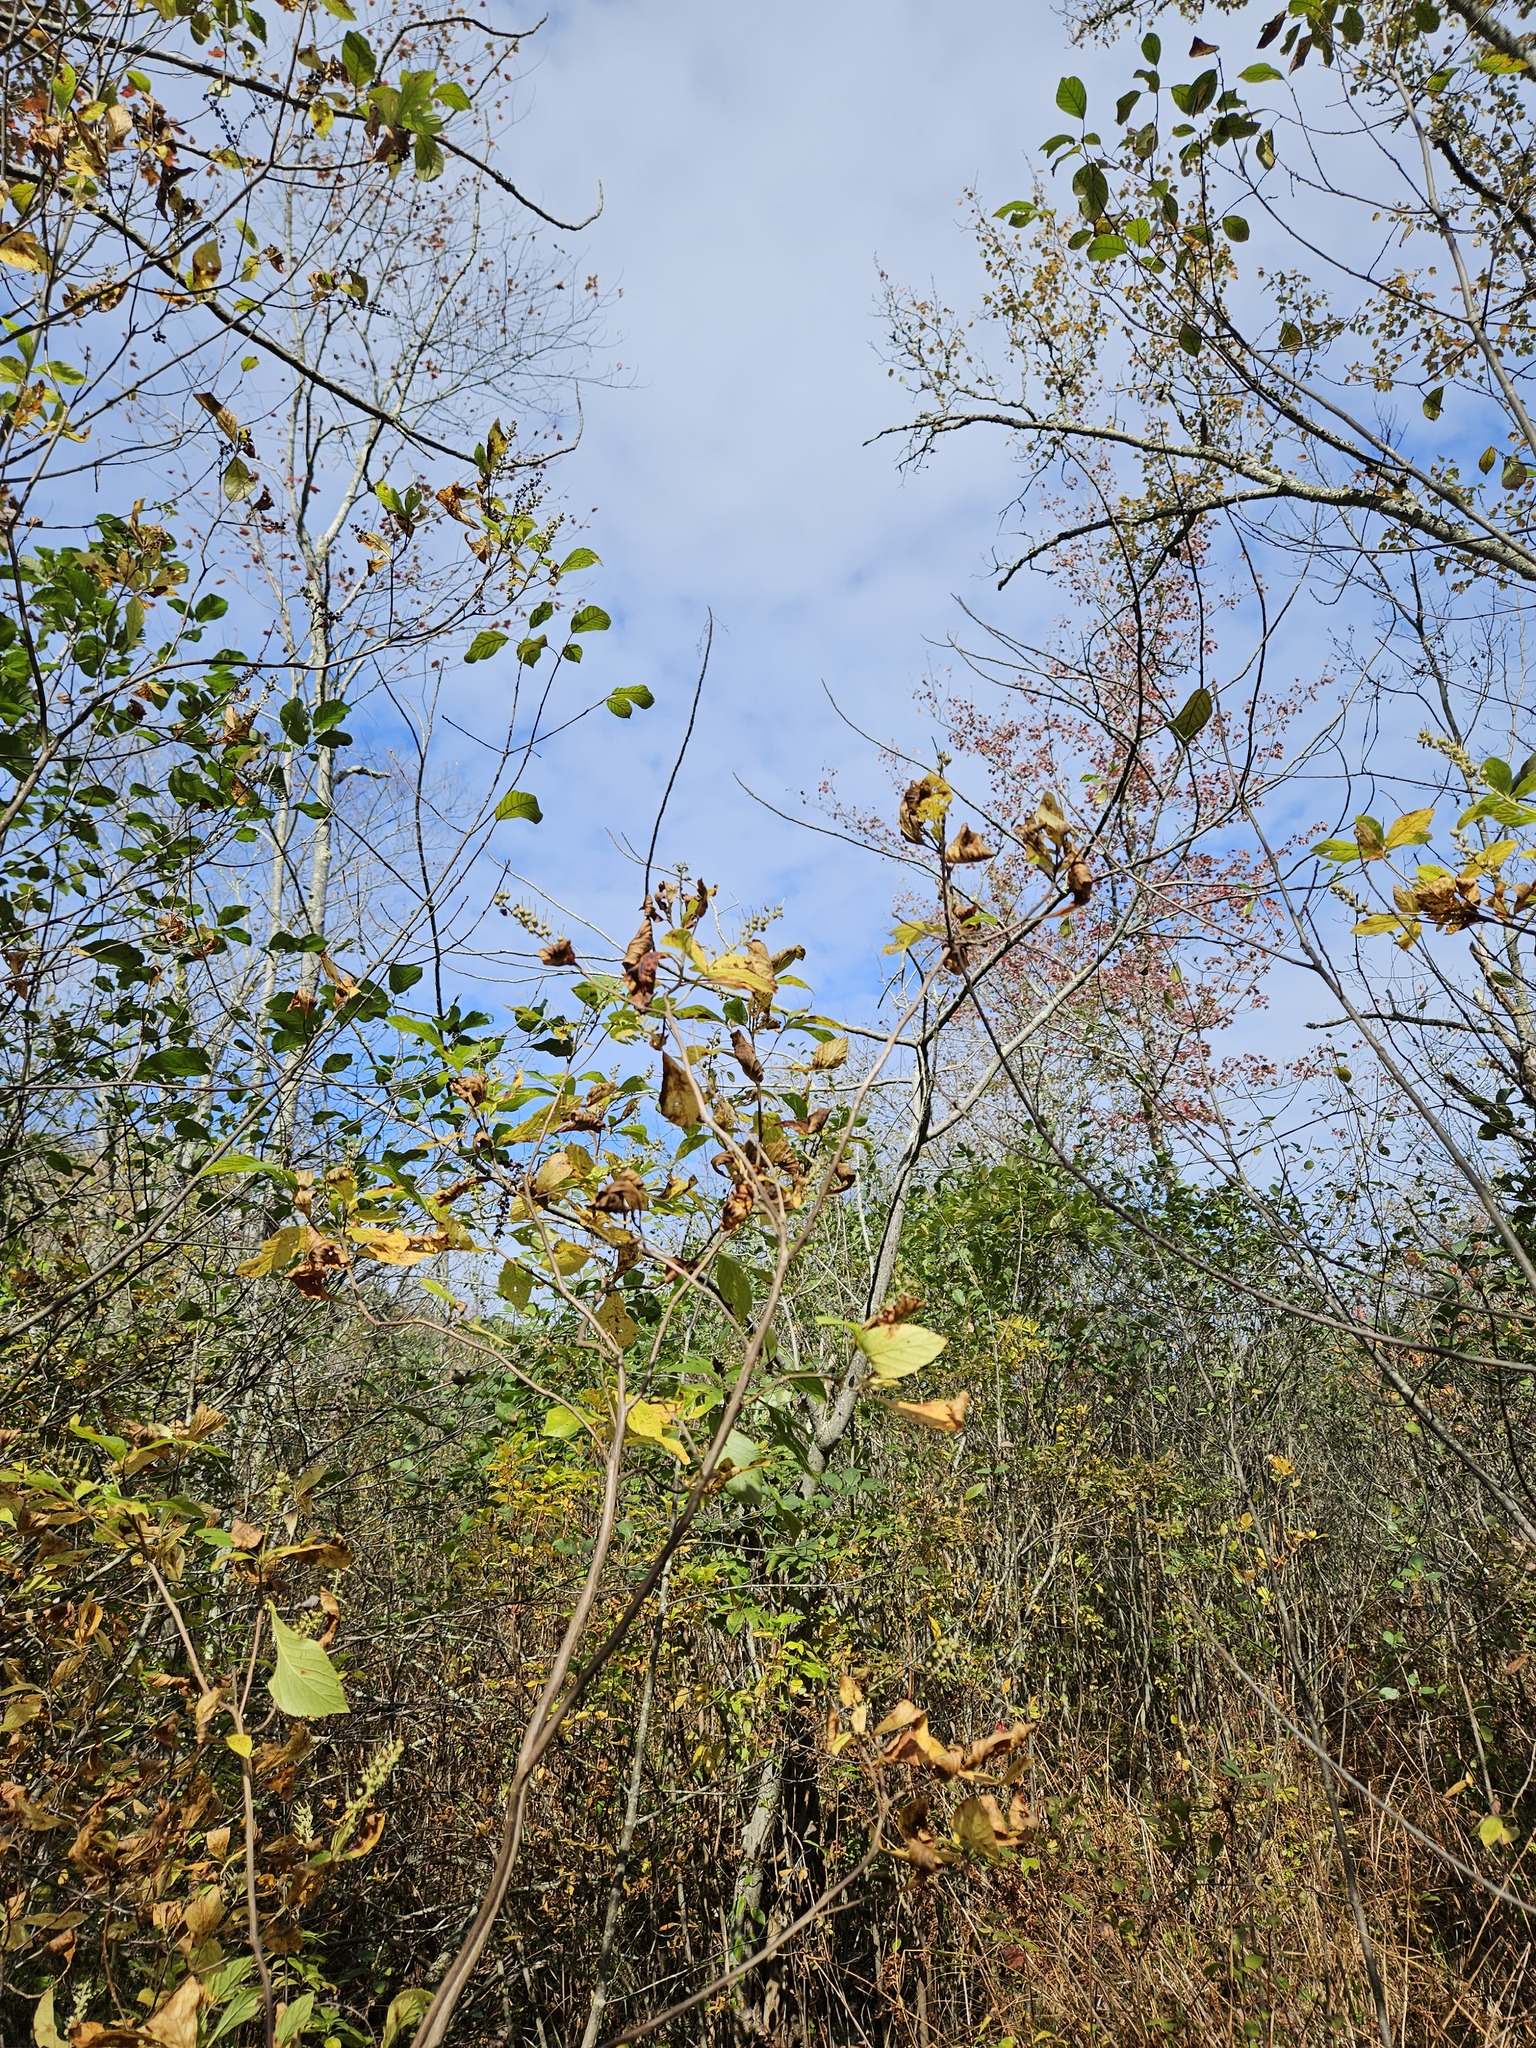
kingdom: Plantae
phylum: Tracheophyta
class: Magnoliopsida
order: Sapindales
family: Anacardiaceae
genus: Toxicodendron
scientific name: Toxicodendron vernix
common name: Poison sumac
